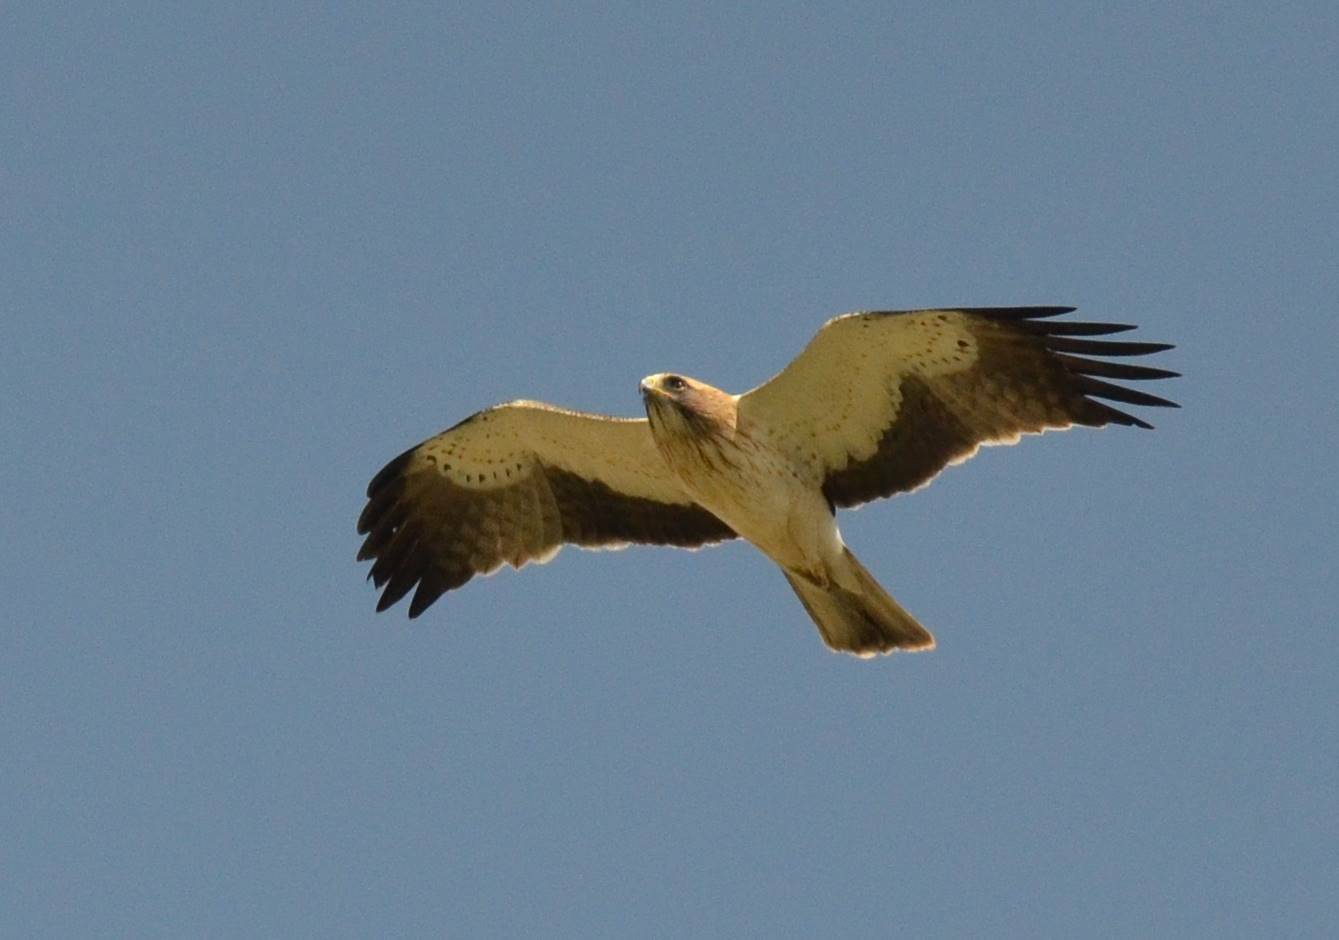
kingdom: Animalia
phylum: Chordata
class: Aves
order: Accipitriformes
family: Accipitridae
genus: Hieraaetus
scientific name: Hieraaetus pennatus
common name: Booted eagle
